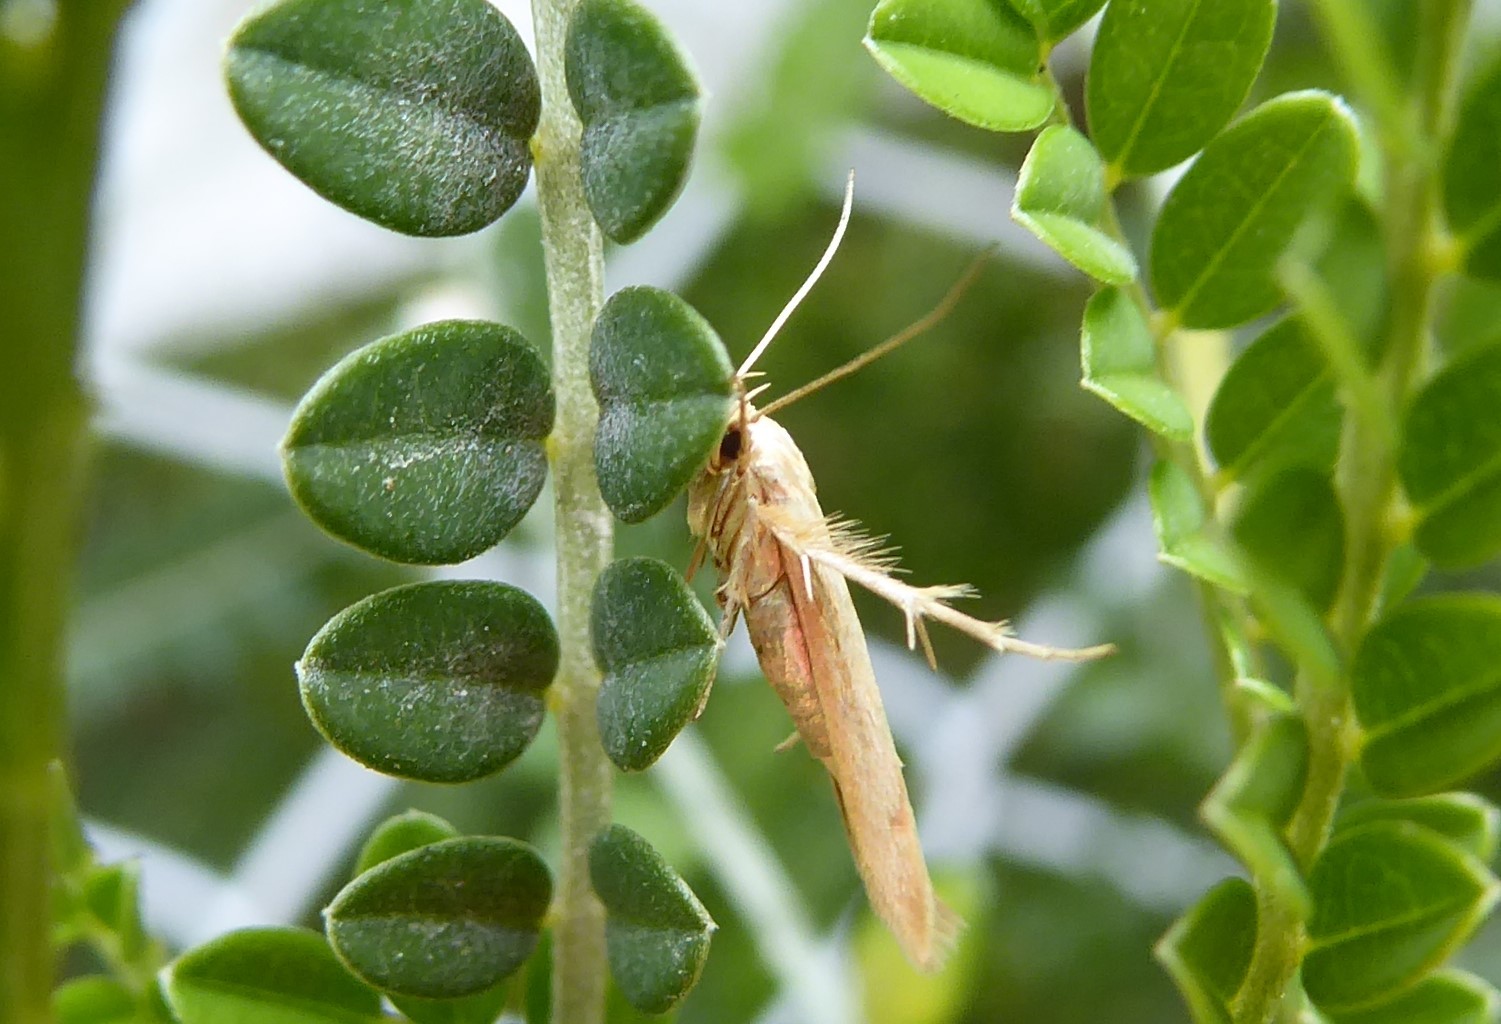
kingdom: Animalia
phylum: Arthropoda
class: Insecta
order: Lepidoptera
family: Stathmopodidae
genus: Stathmopoda
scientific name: Stathmopoda horticola
